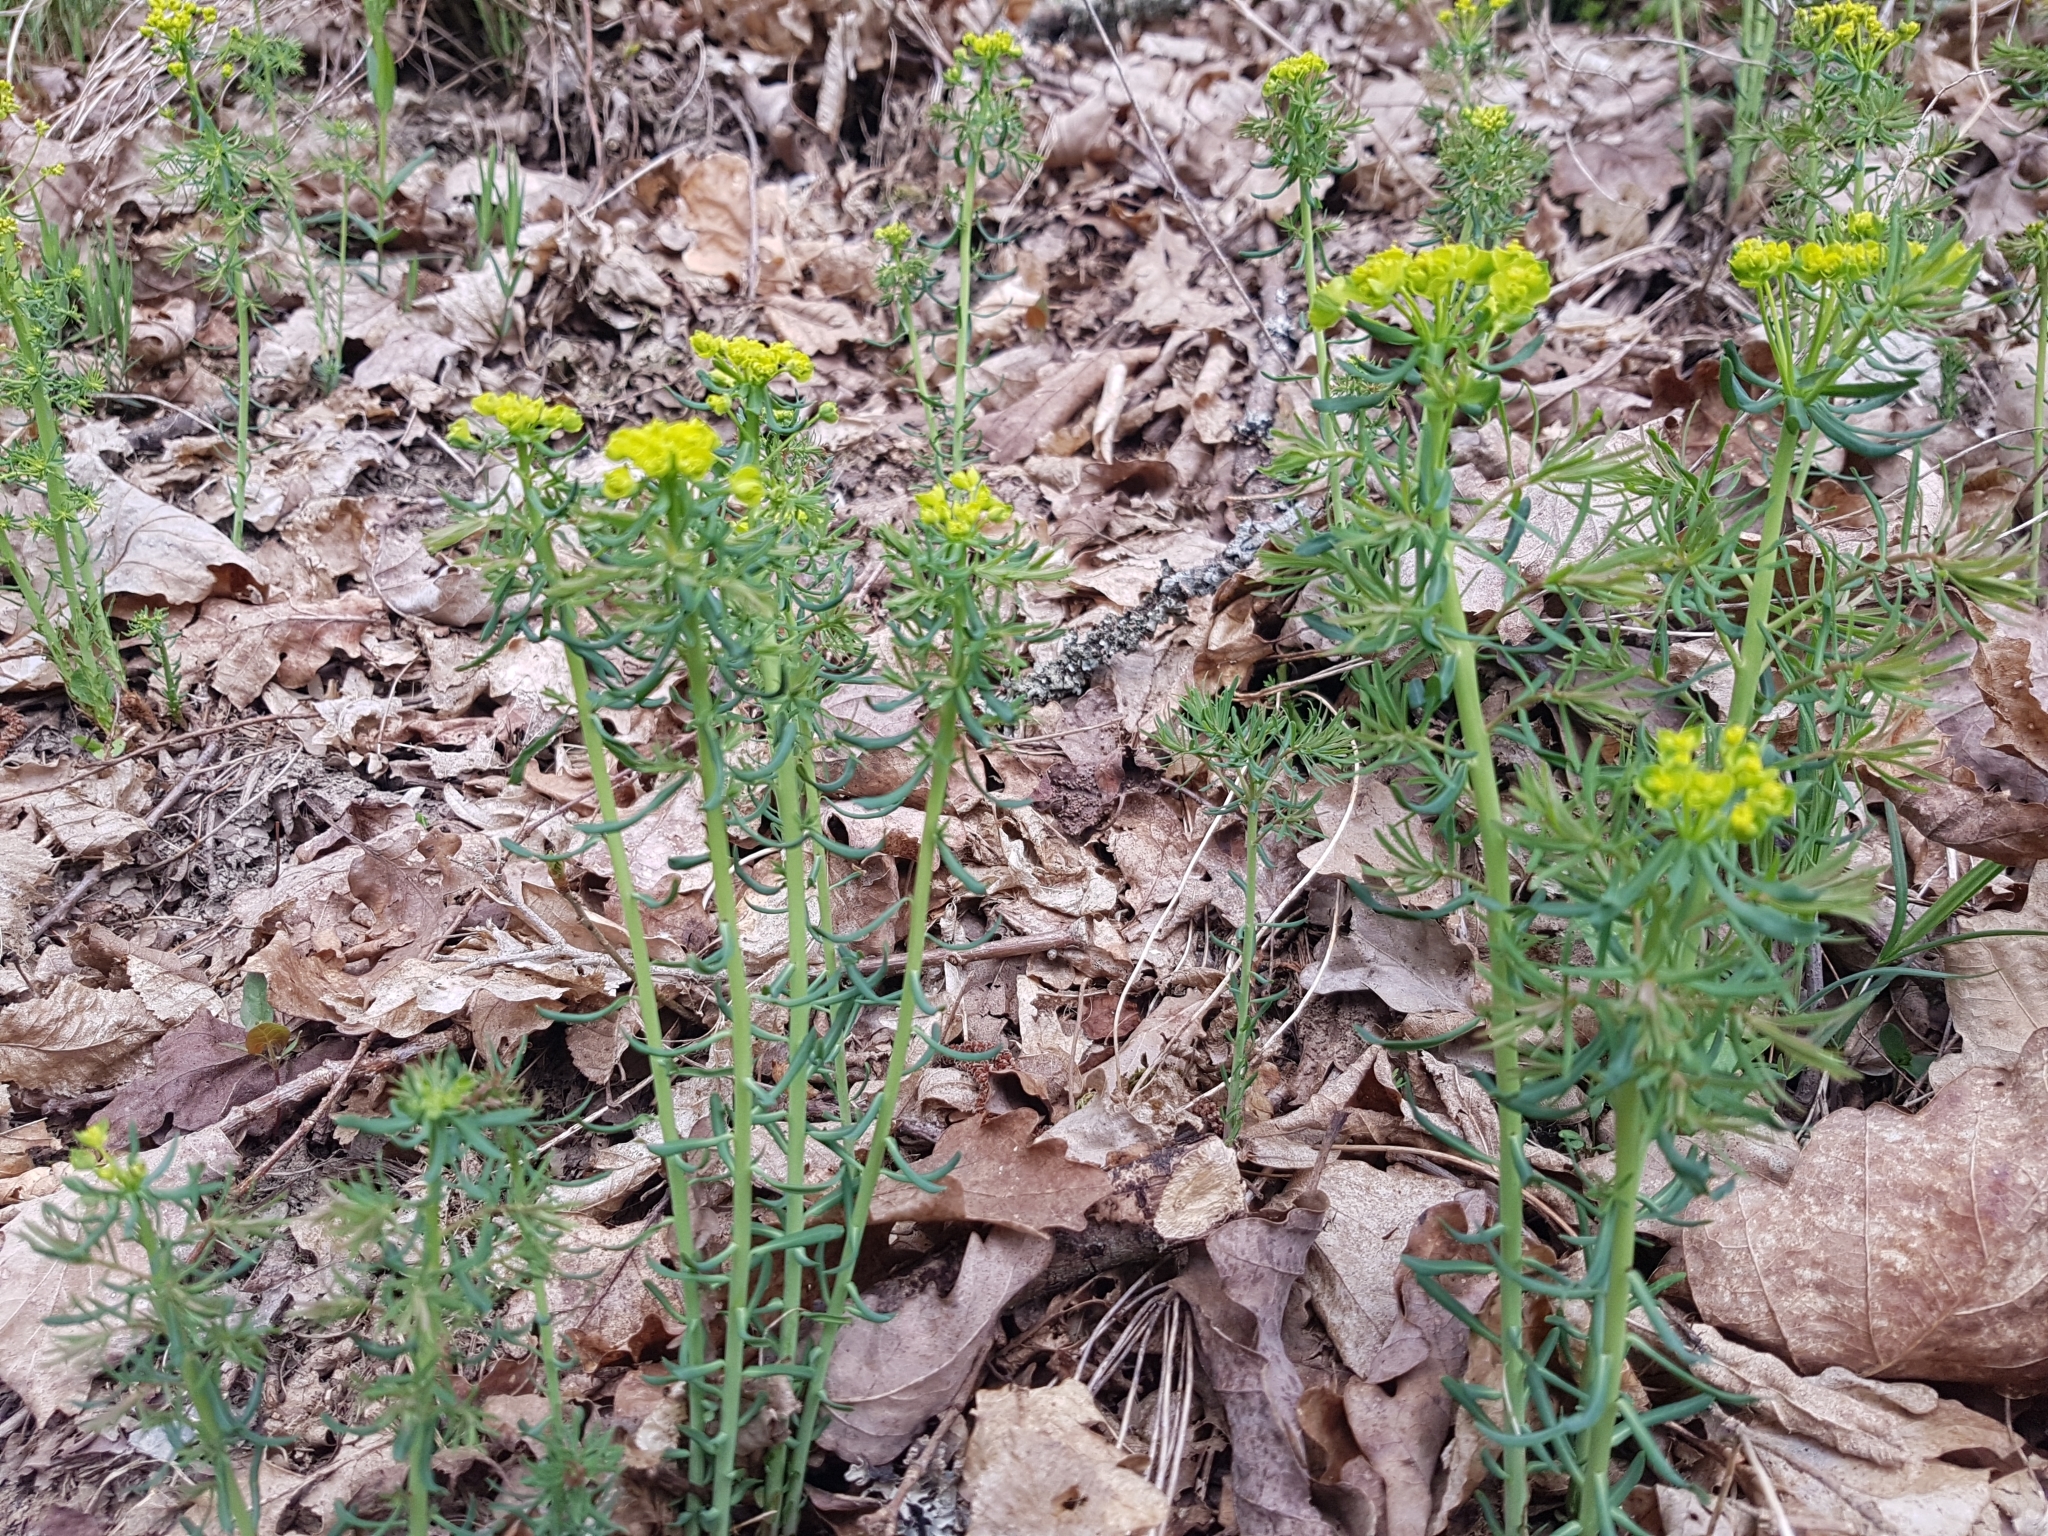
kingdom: Plantae
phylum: Tracheophyta
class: Magnoliopsida
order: Malpighiales
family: Euphorbiaceae
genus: Euphorbia
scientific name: Euphorbia cyparissias
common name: Cypress spurge
